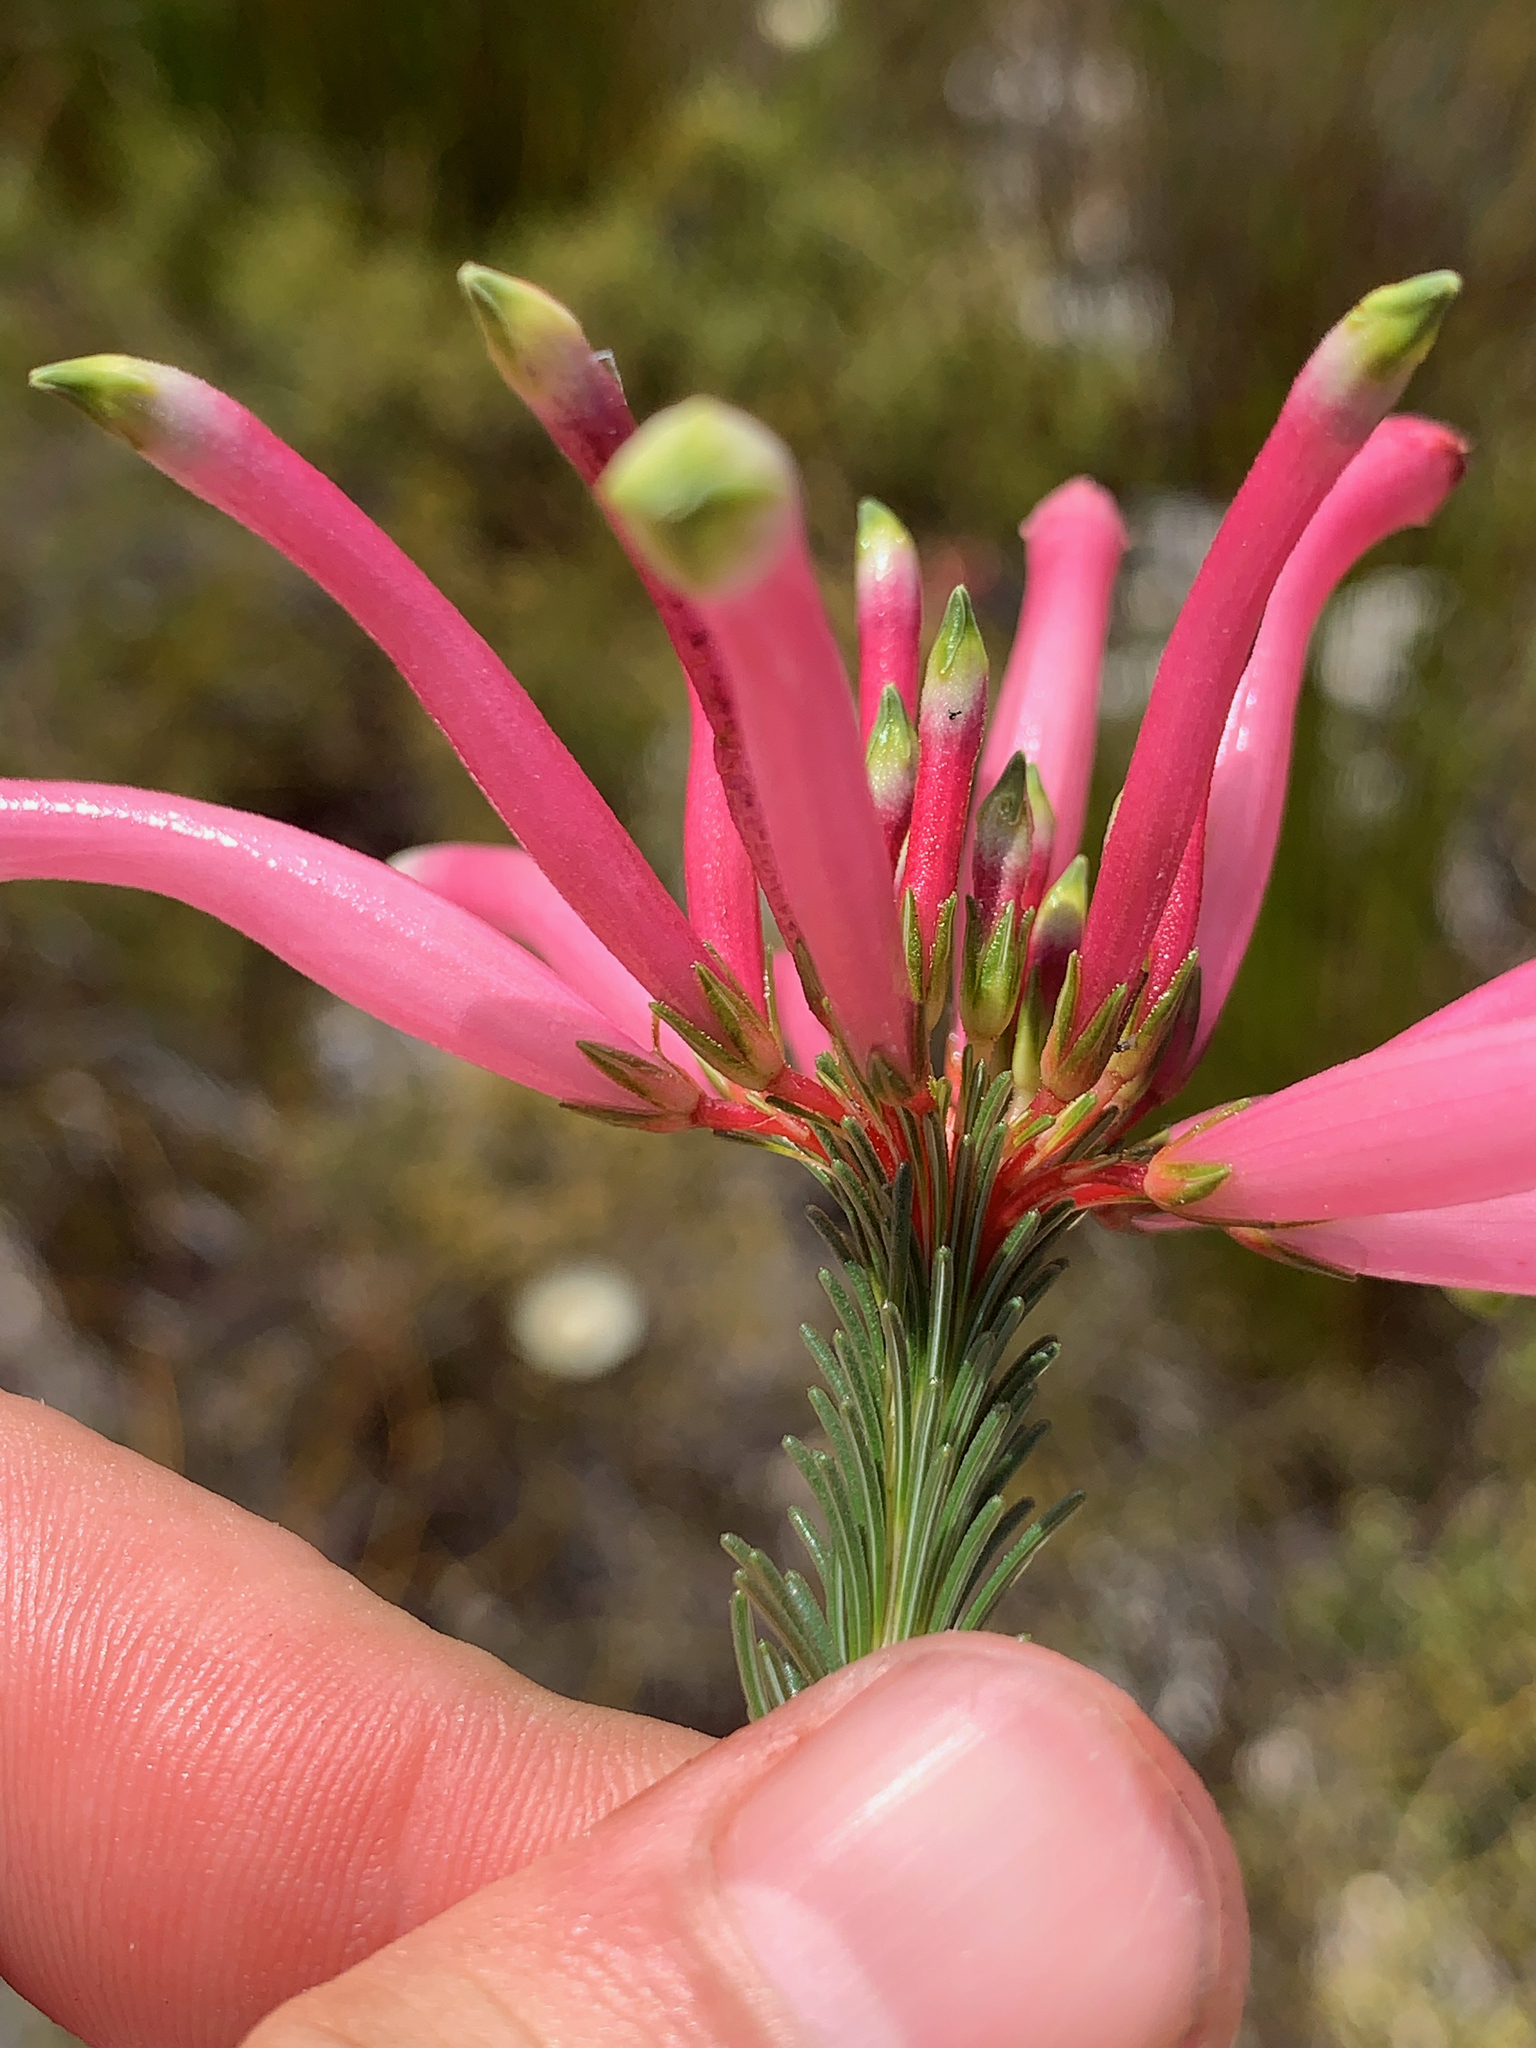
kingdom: Plantae
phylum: Tracheophyta
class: Magnoliopsida
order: Ericales
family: Ericaceae
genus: Erica
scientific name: Erica fascicularis
